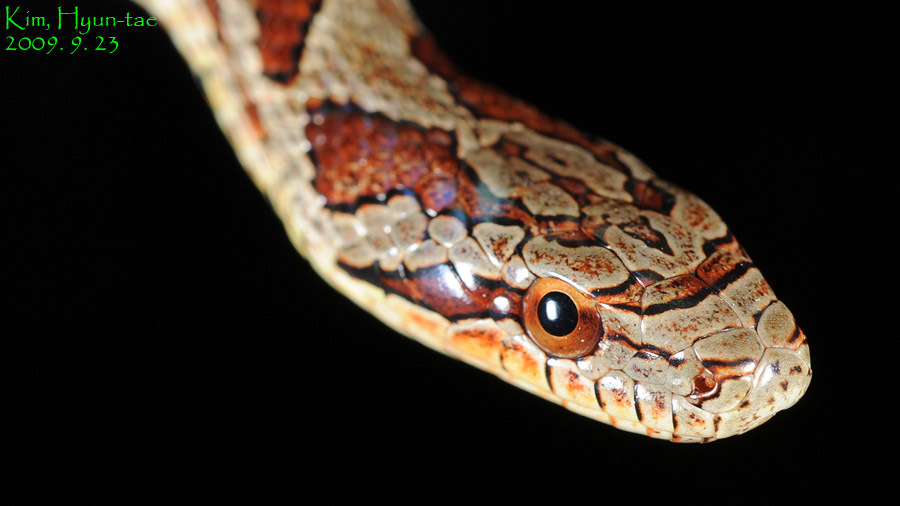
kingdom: Animalia
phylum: Chordata
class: Squamata
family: Colubridae
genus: Elaphe
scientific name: Elaphe dione
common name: Dione ratsnake
